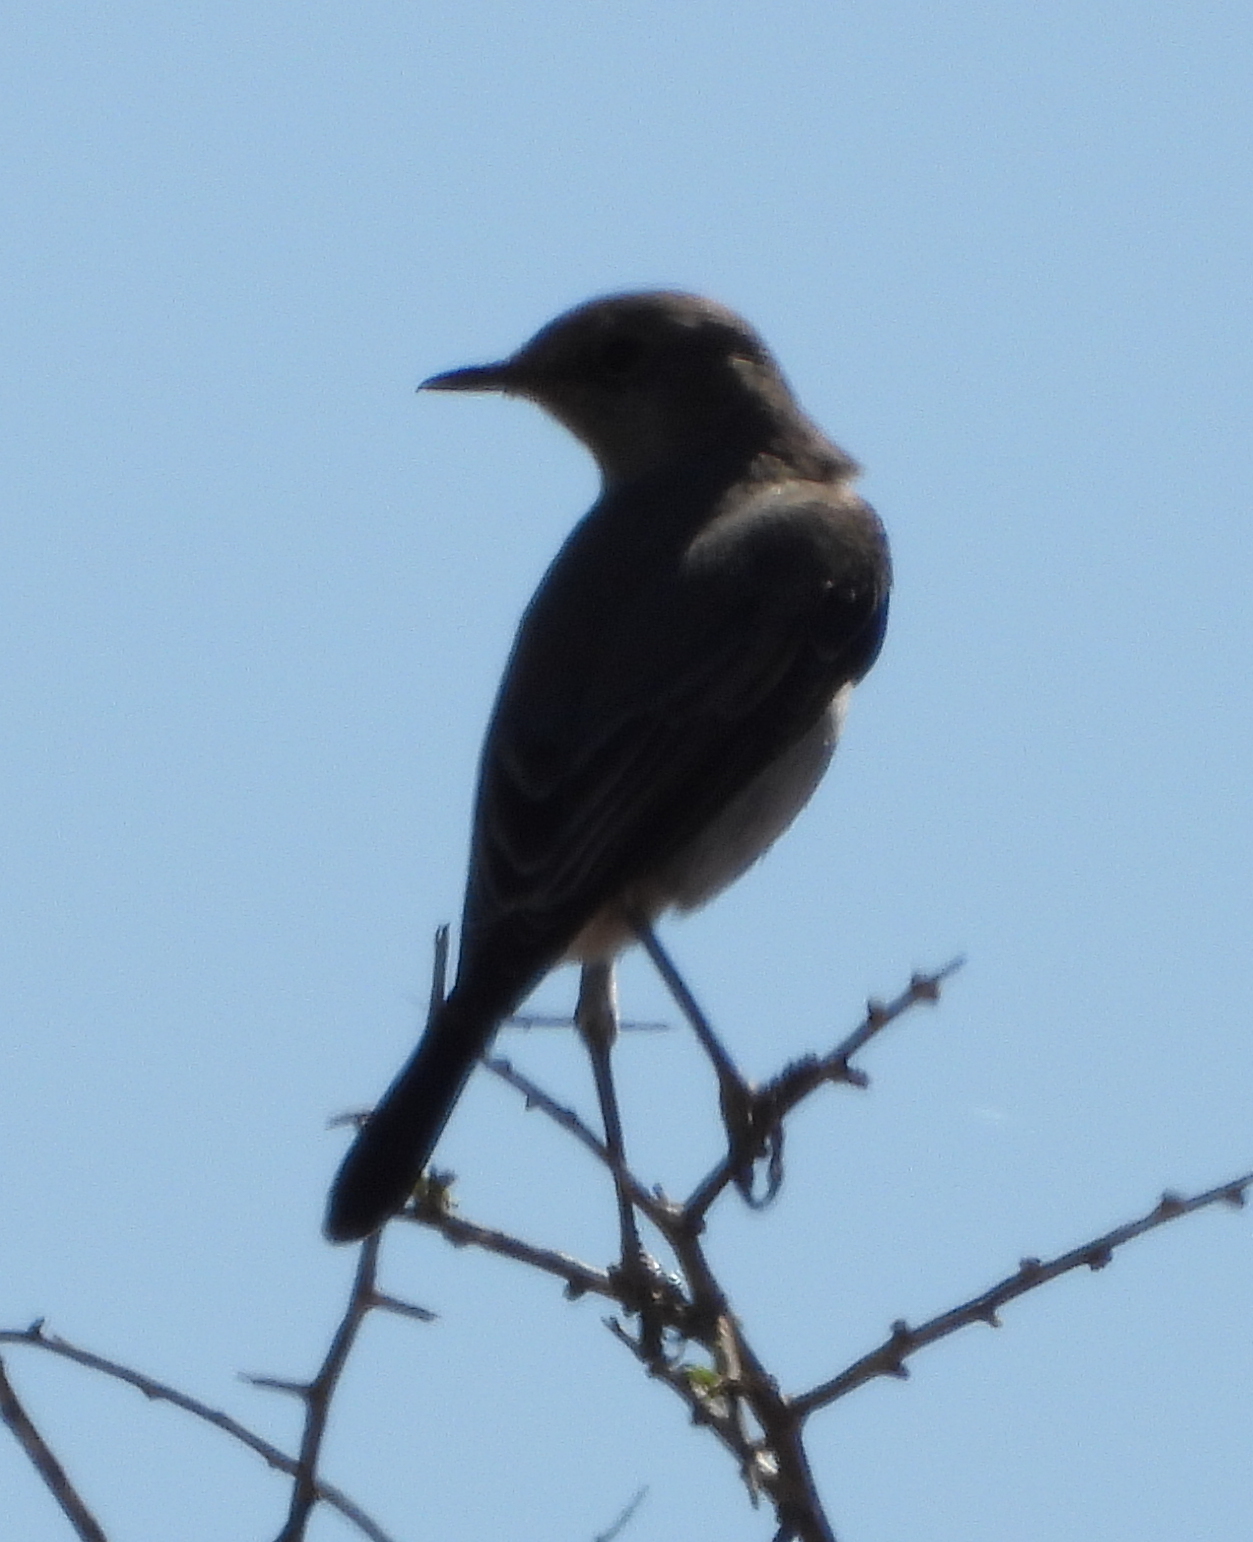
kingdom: Animalia
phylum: Chordata
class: Aves
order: Passeriformes
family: Muscicapidae
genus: Emarginata
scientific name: Emarginata schlegelii
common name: Karoo chat
